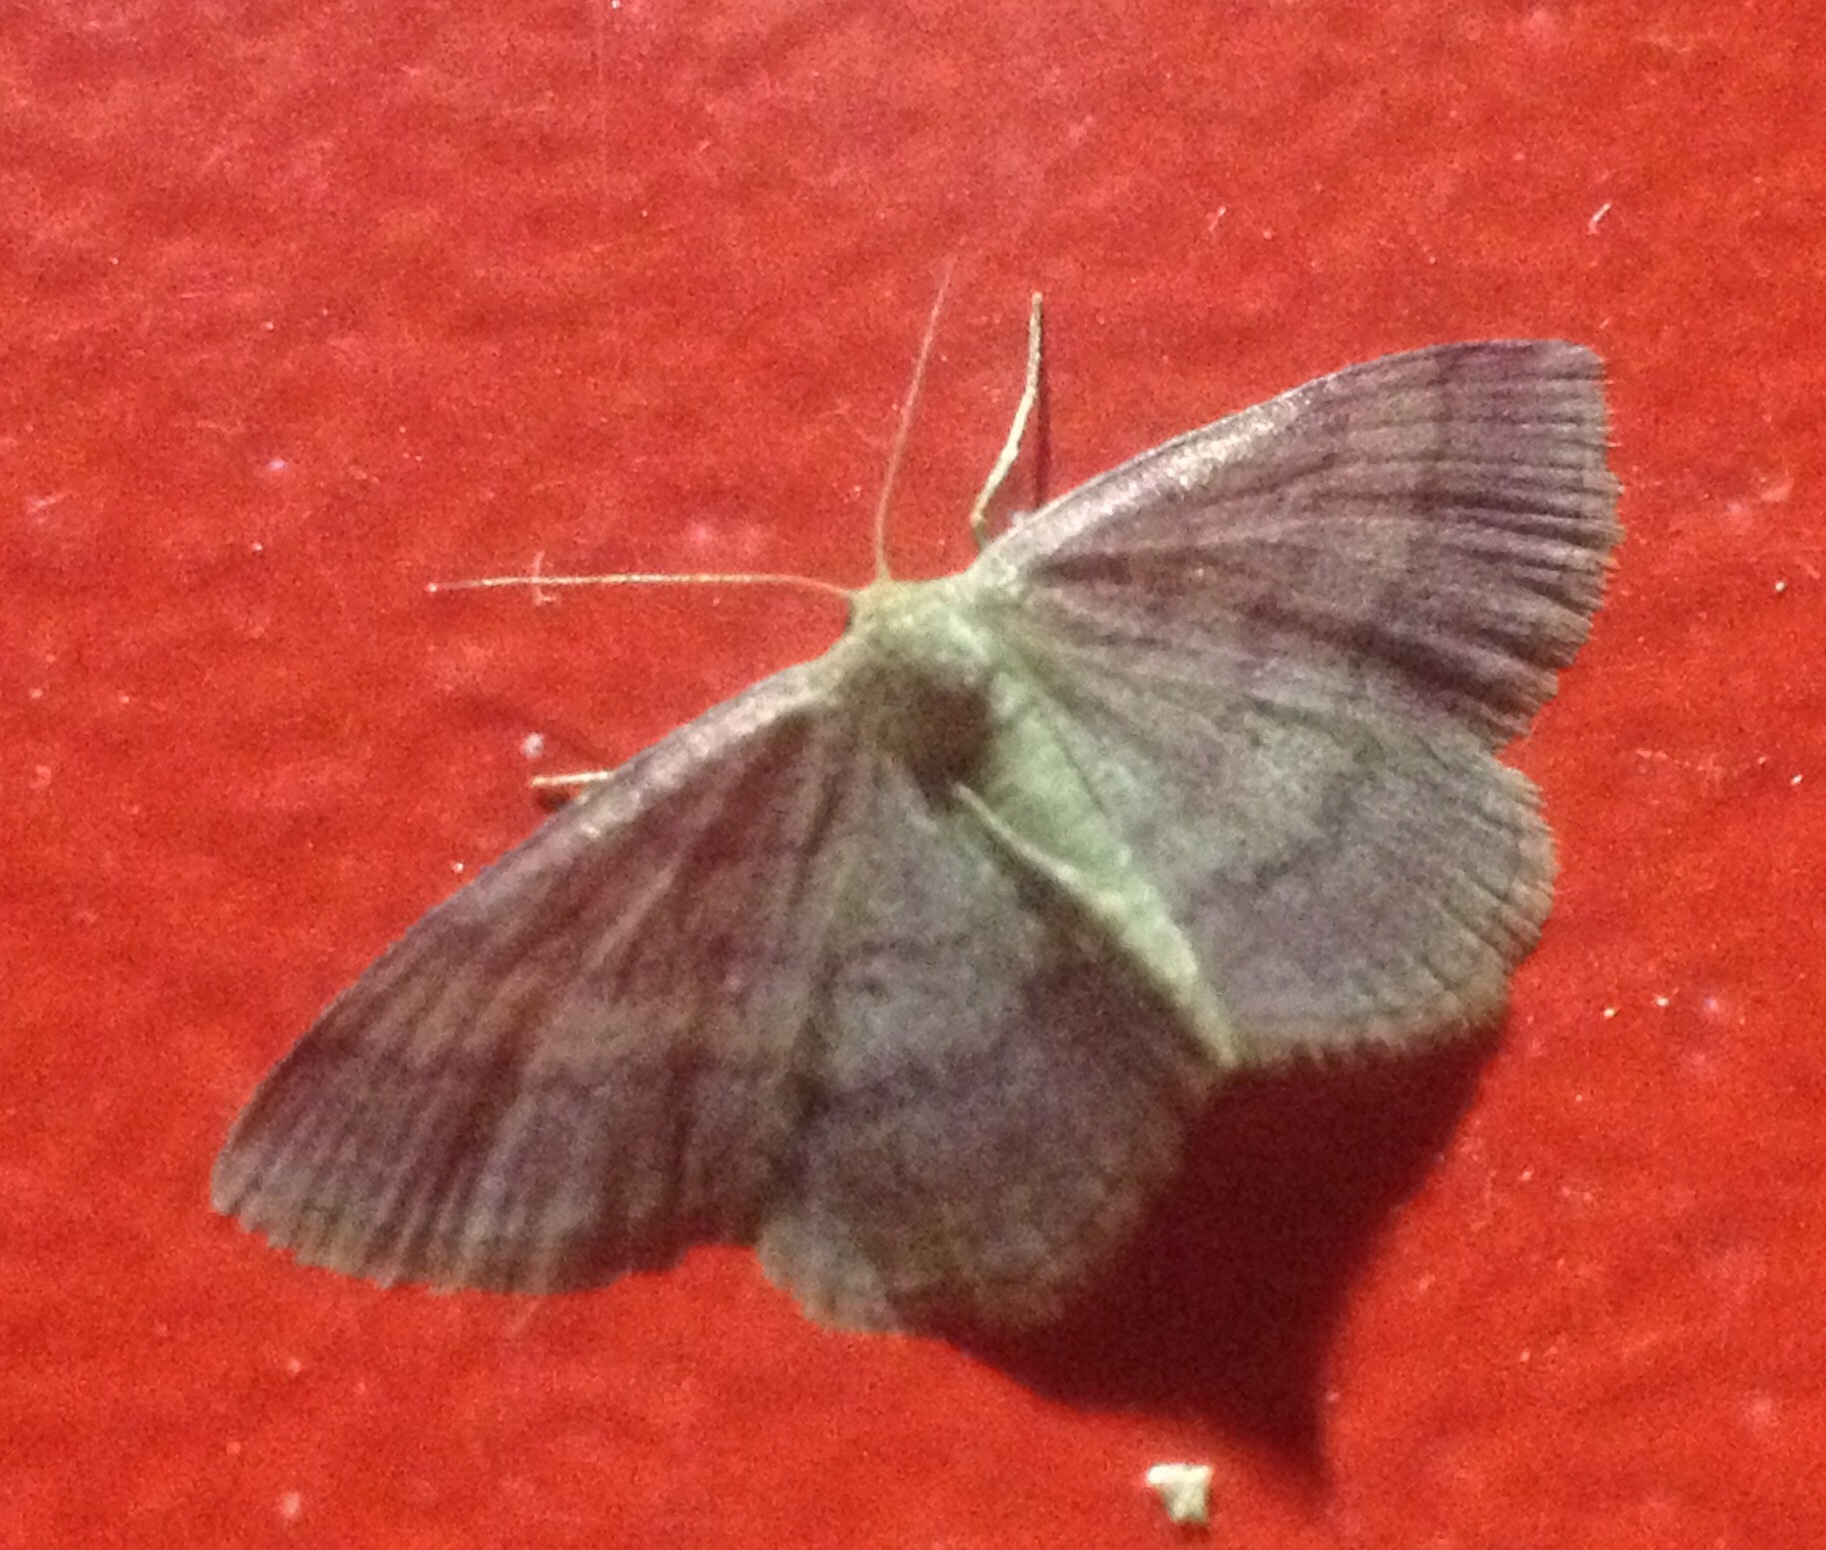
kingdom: Animalia
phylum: Arthropoda
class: Insecta
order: Lepidoptera
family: Geometridae
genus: Scopula
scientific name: Scopula rubiginata
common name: Tawny wave
